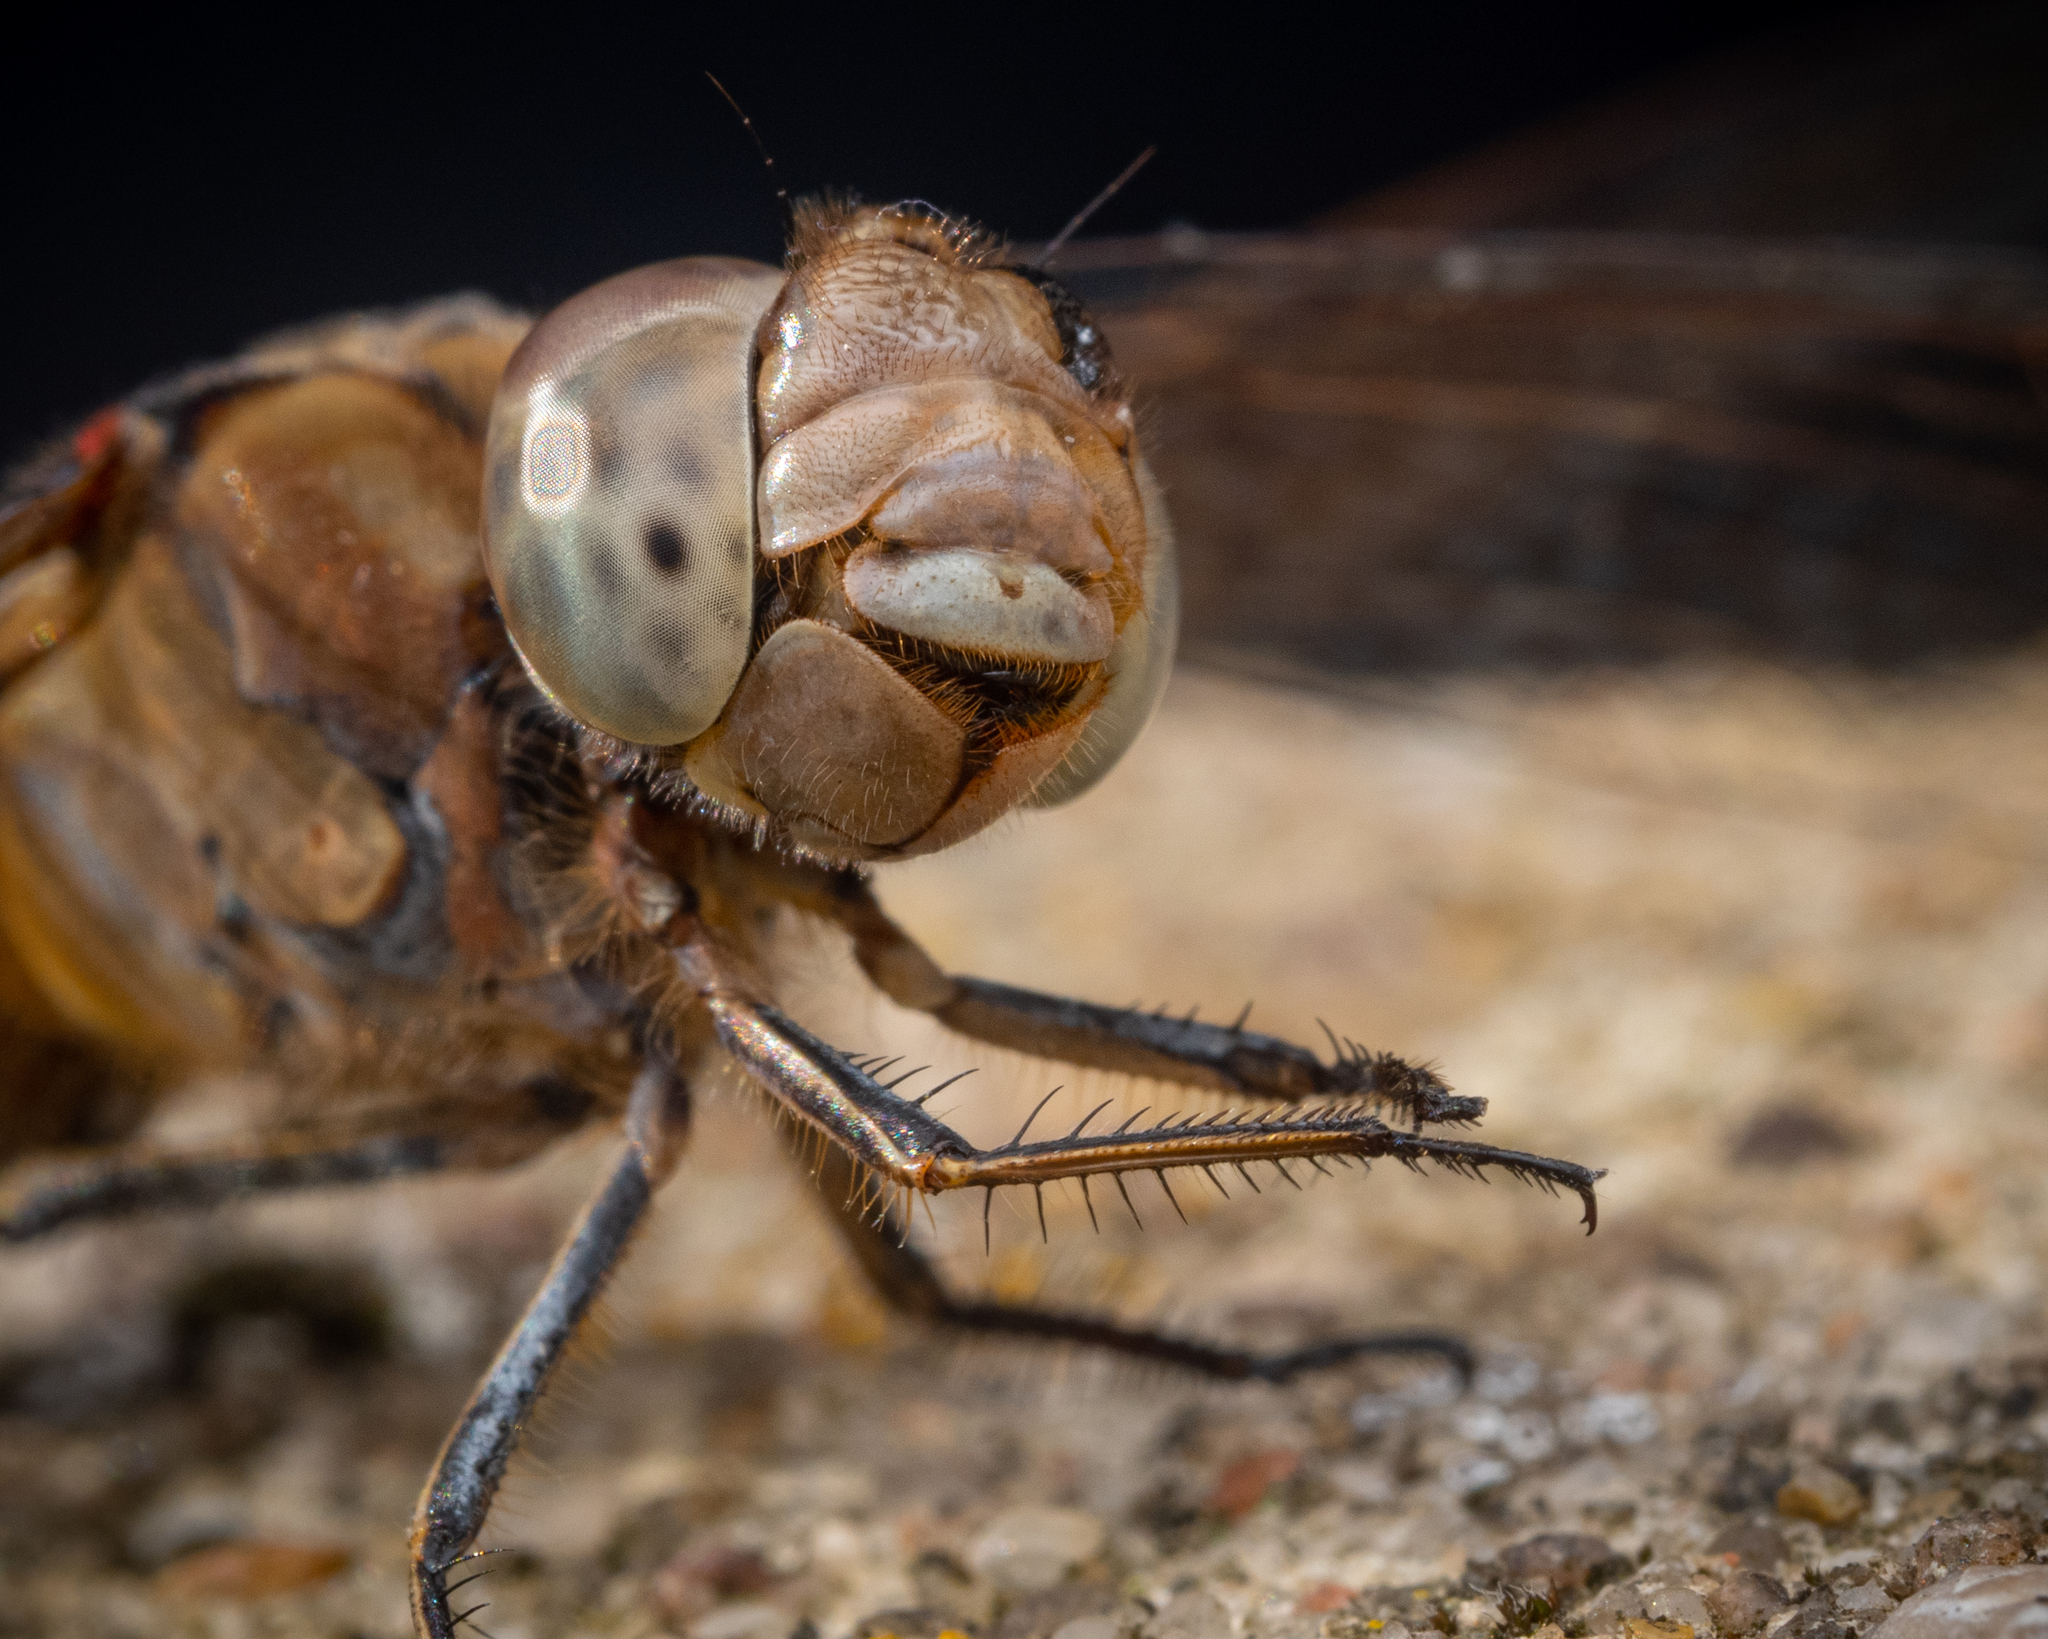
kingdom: Animalia
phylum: Arthropoda
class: Insecta
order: Odonata
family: Libellulidae
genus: Sympetrum
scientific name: Sympetrum striolatum
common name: Common darter
